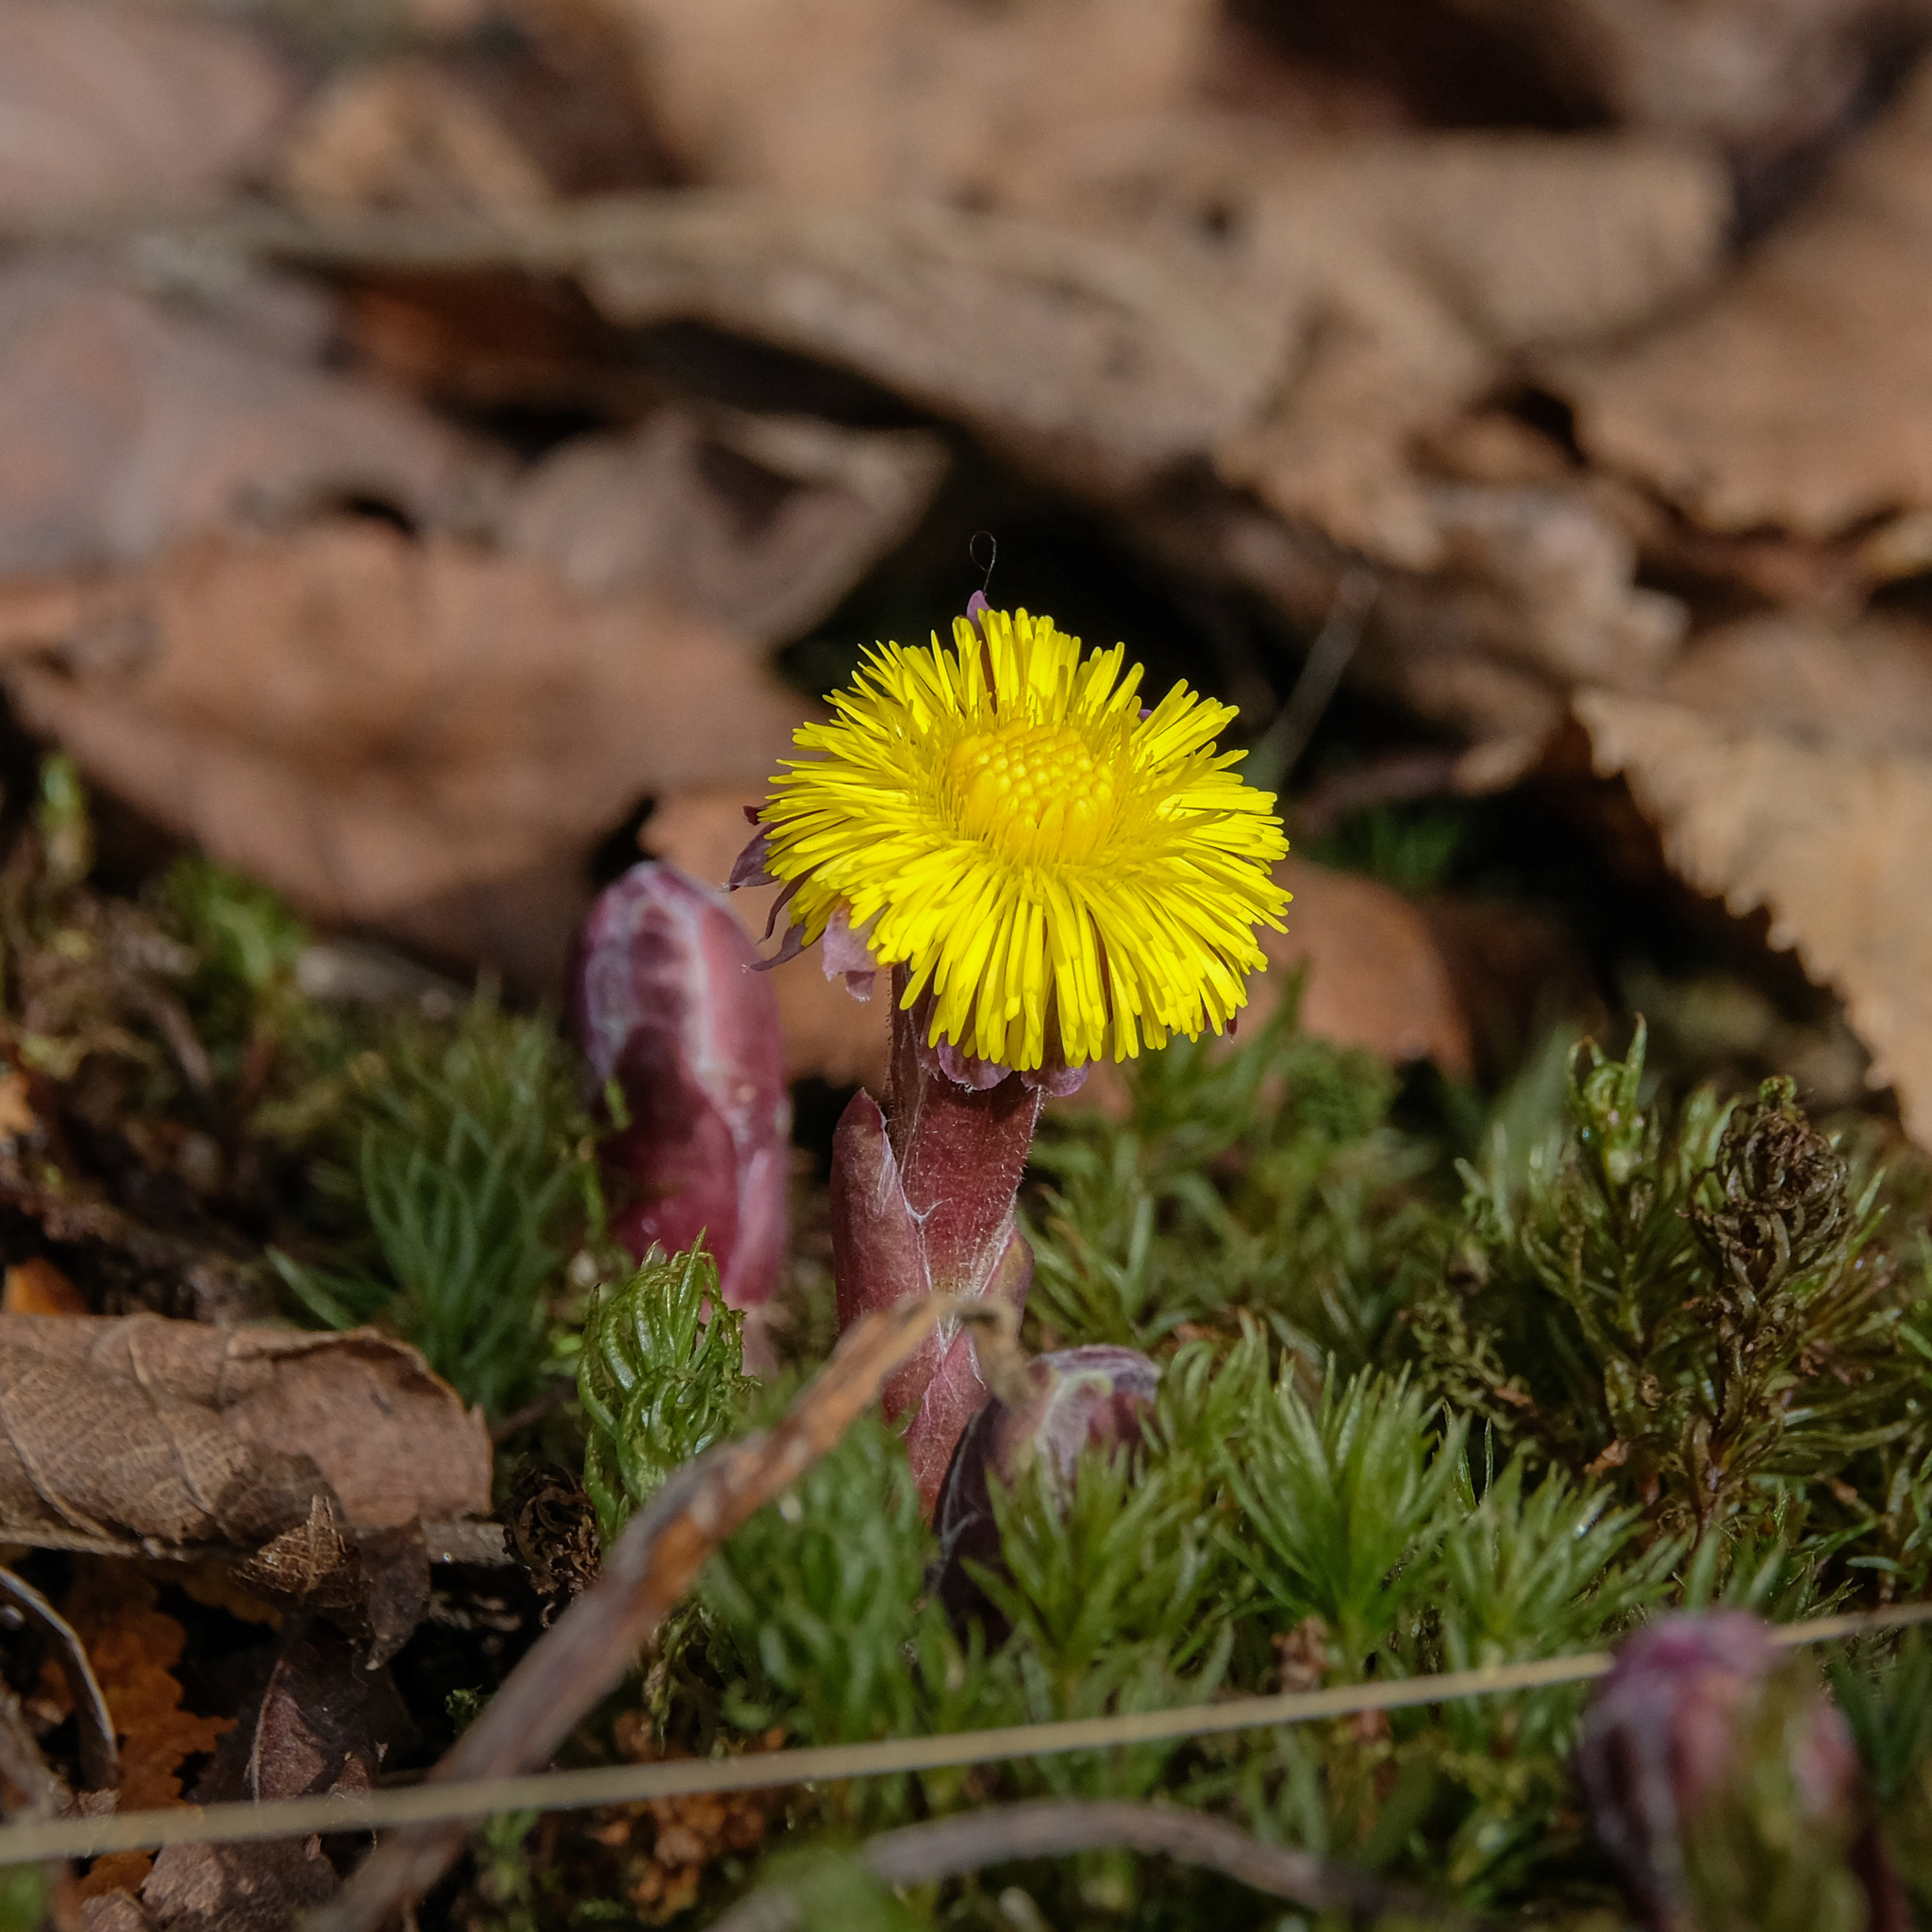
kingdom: Plantae
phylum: Tracheophyta
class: Magnoliopsida
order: Asterales
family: Asteraceae
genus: Tussilago
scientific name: Tussilago farfara
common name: Coltsfoot
